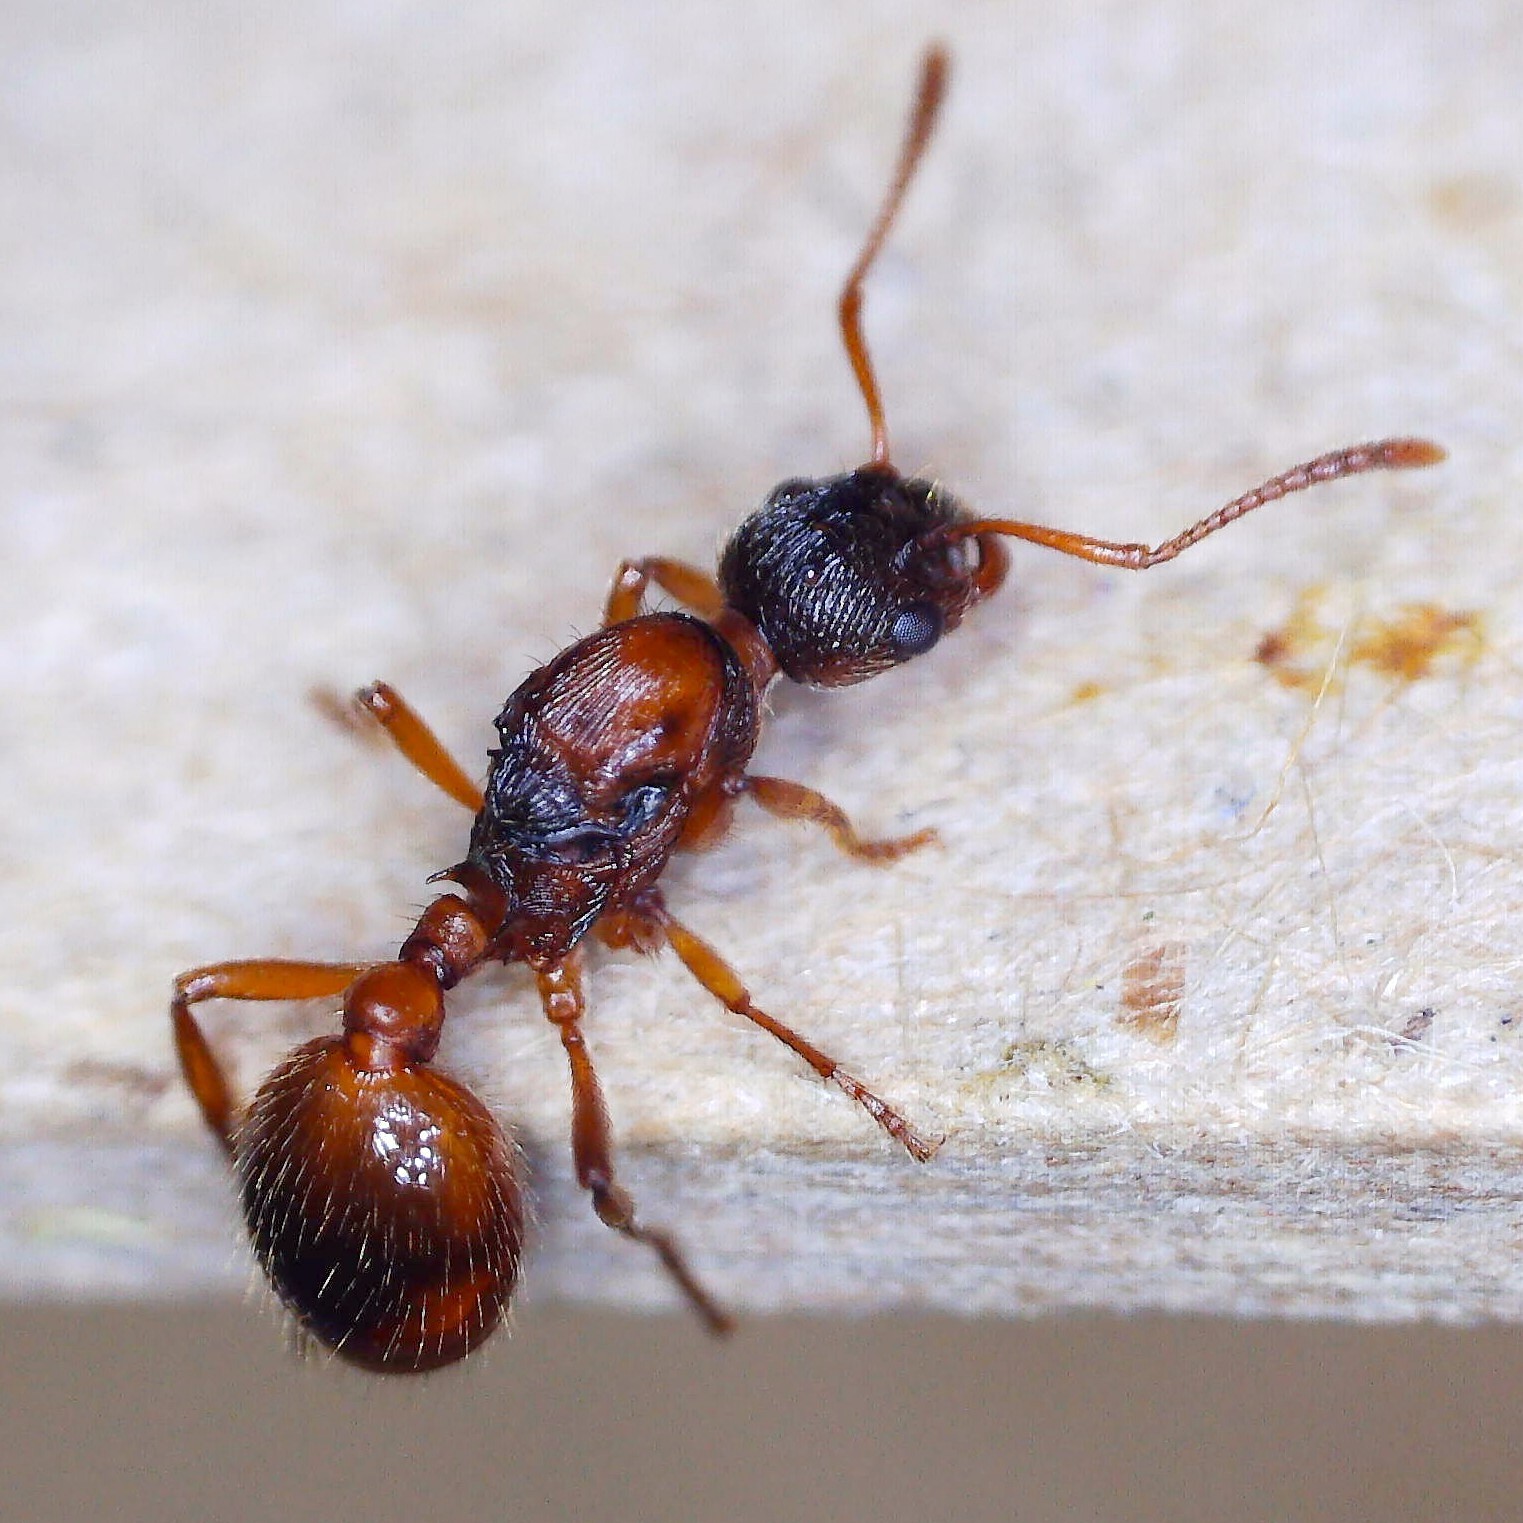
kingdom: Animalia
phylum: Arthropoda
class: Insecta
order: Hymenoptera
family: Formicidae
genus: Myrmica
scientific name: Myrmica rubra
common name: European fire ant
